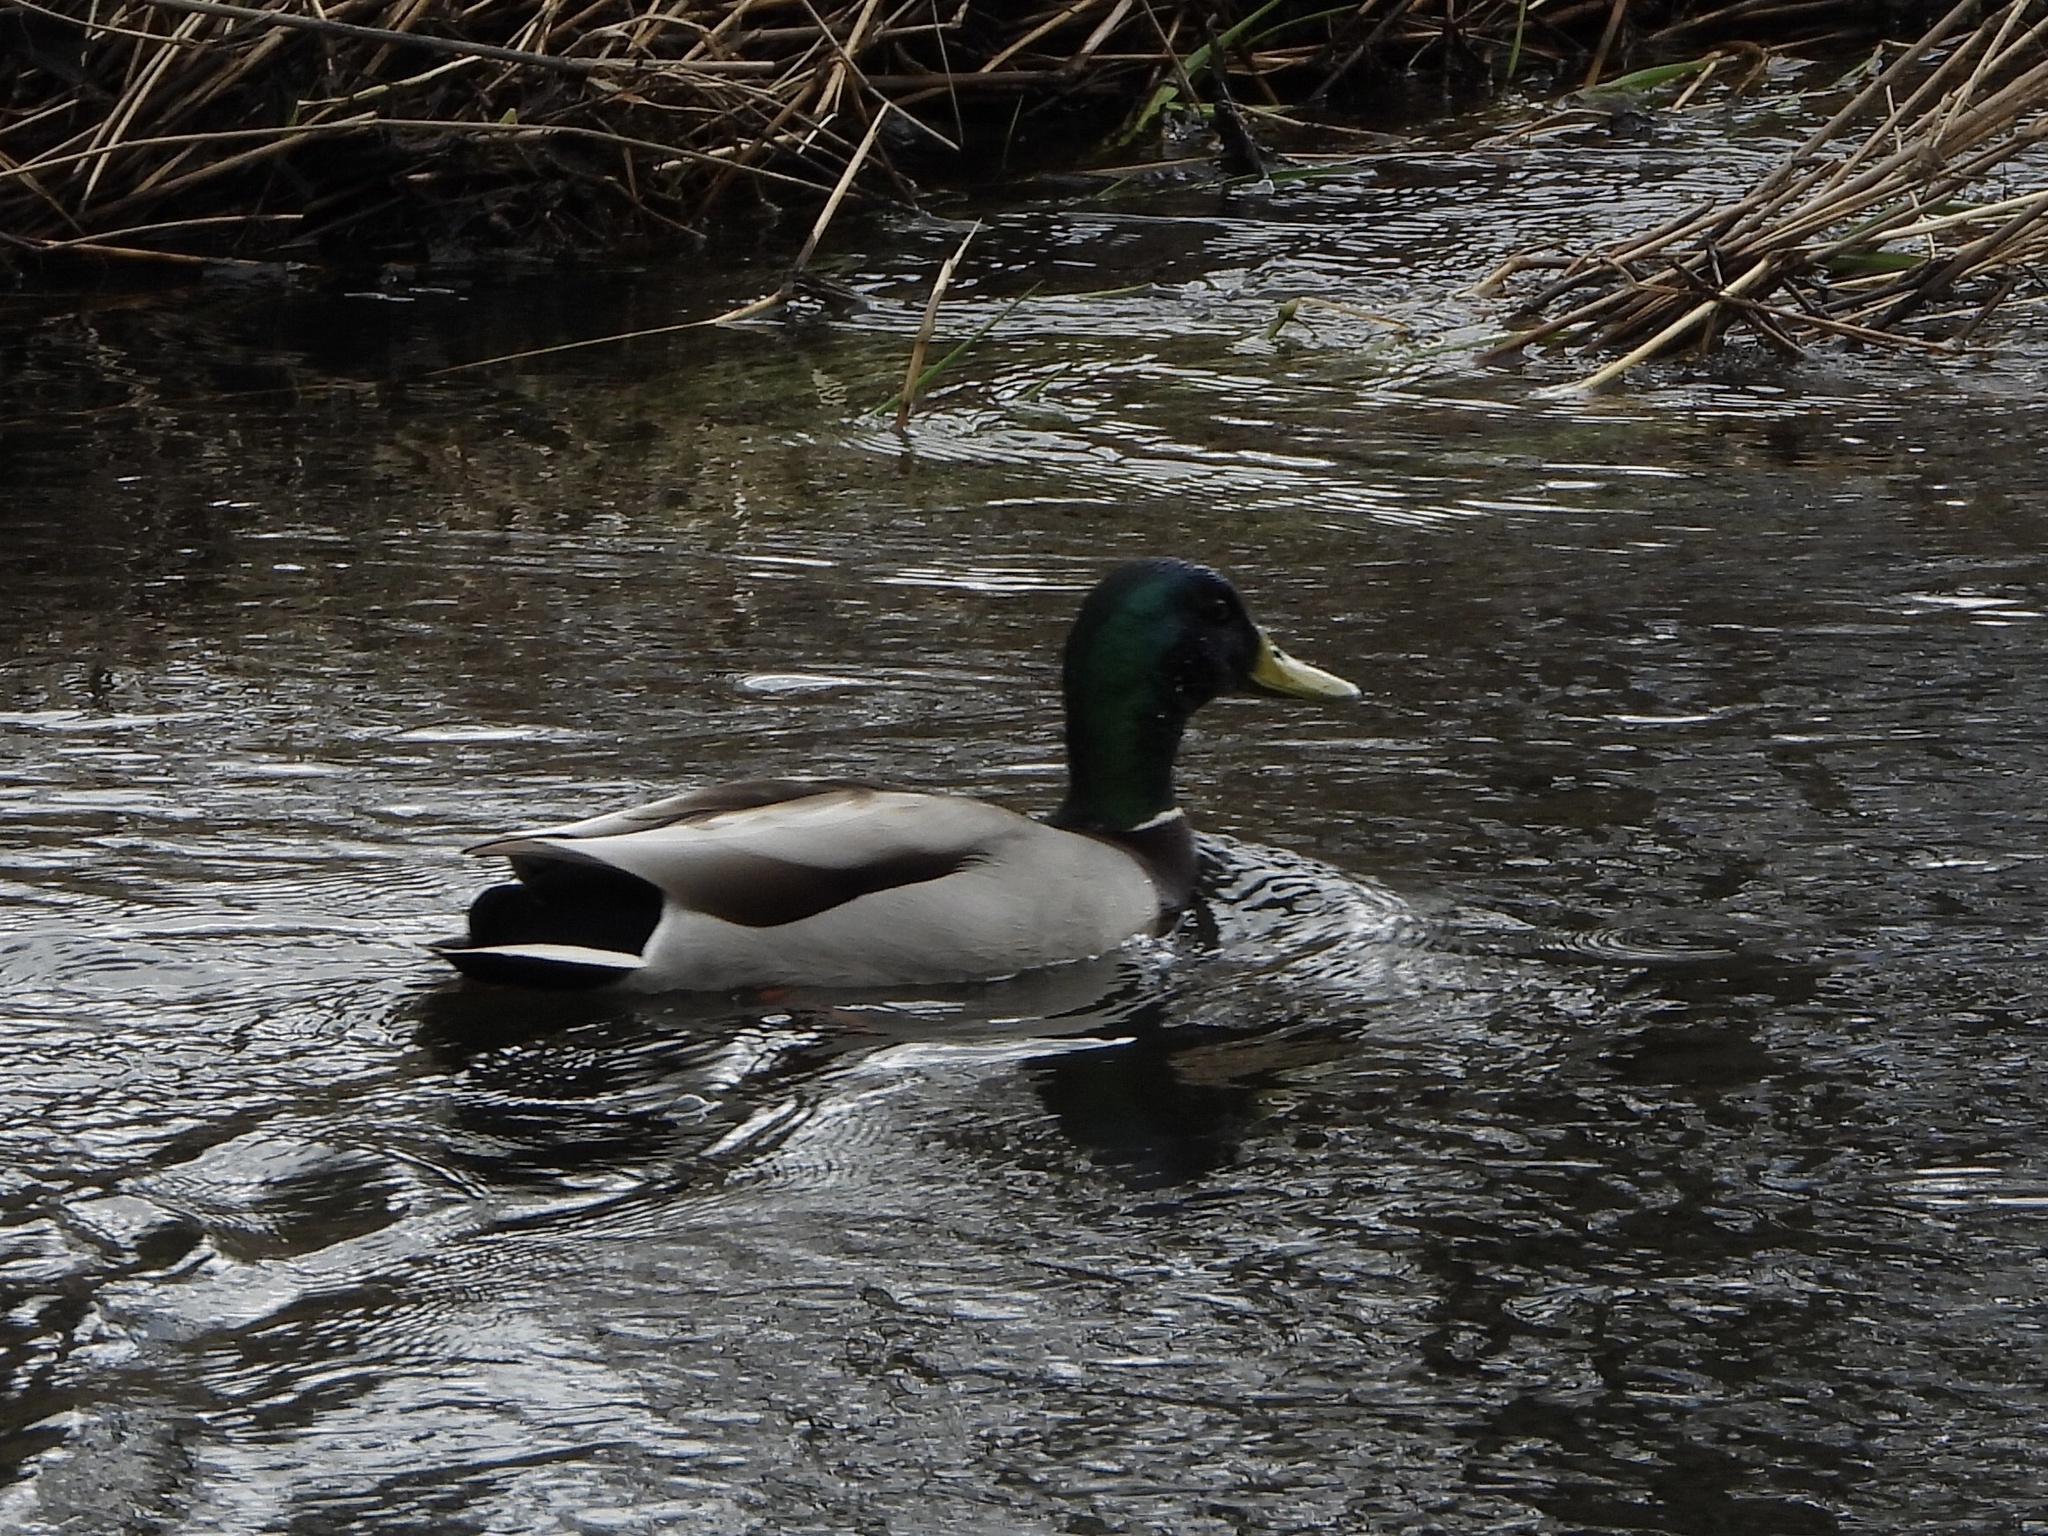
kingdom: Animalia
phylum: Chordata
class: Aves
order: Anseriformes
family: Anatidae
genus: Anas
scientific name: Anas platyrhynchos
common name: Mallard
